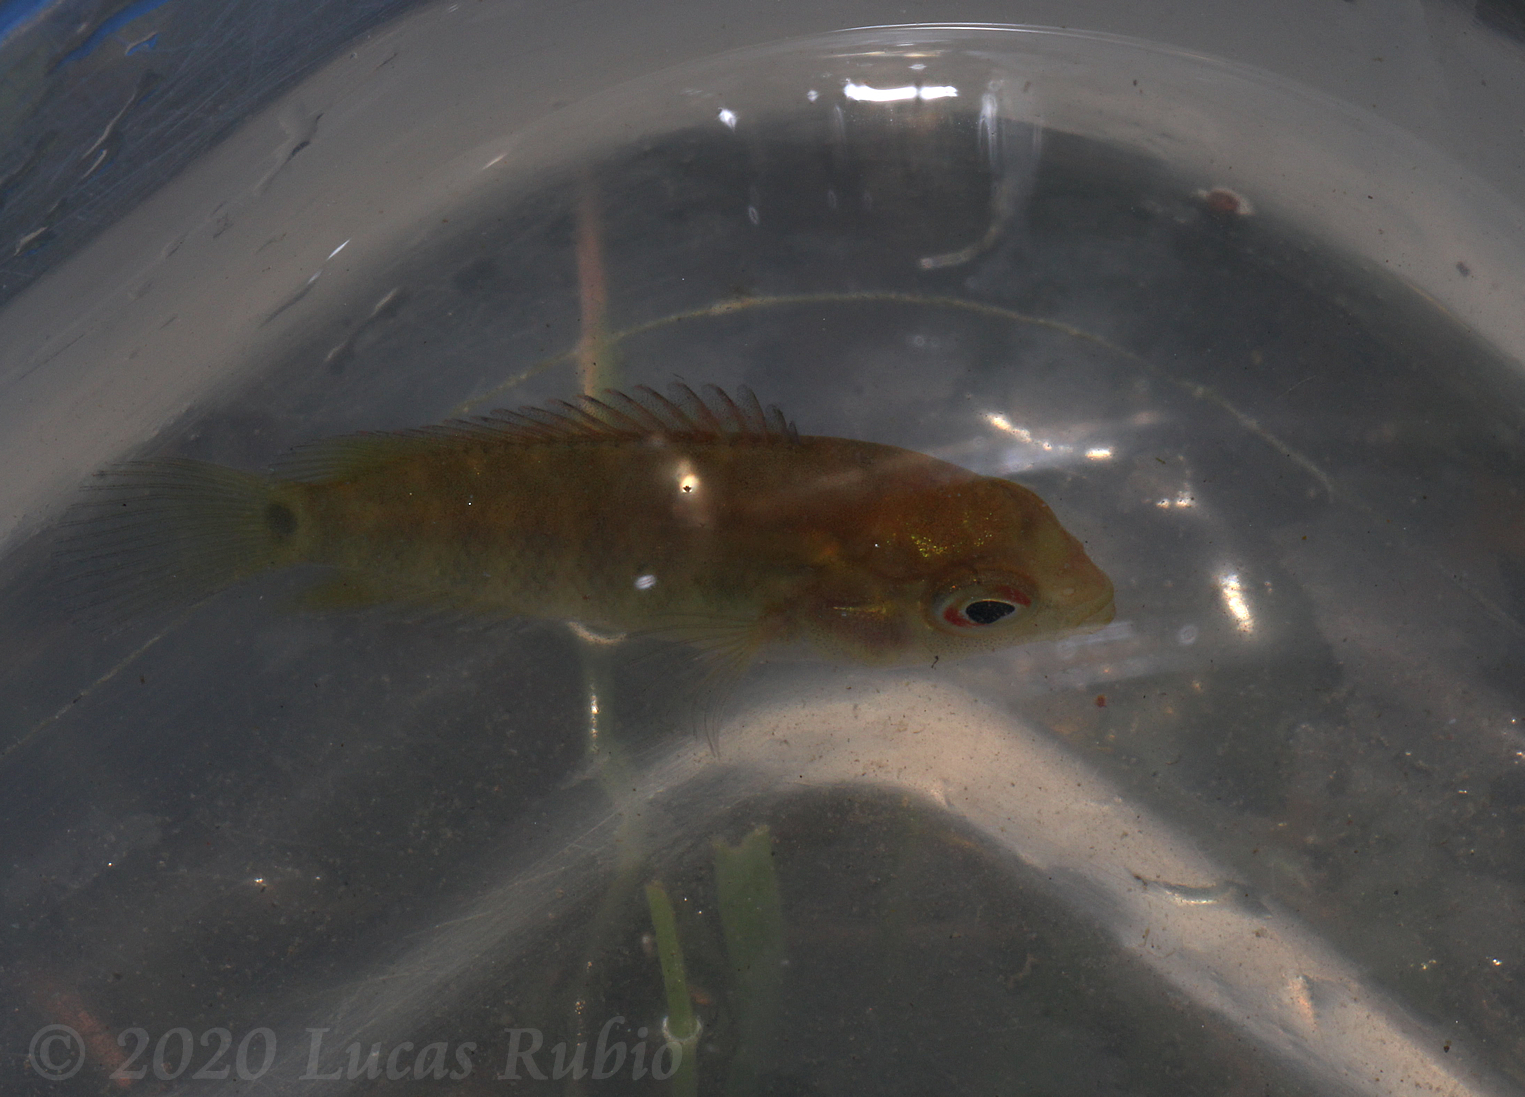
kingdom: Animalia
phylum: Chordata
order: Perciformes
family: Cichlidae
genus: Australoheros
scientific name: Australoheros facetus
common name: Chameleon cichlid
